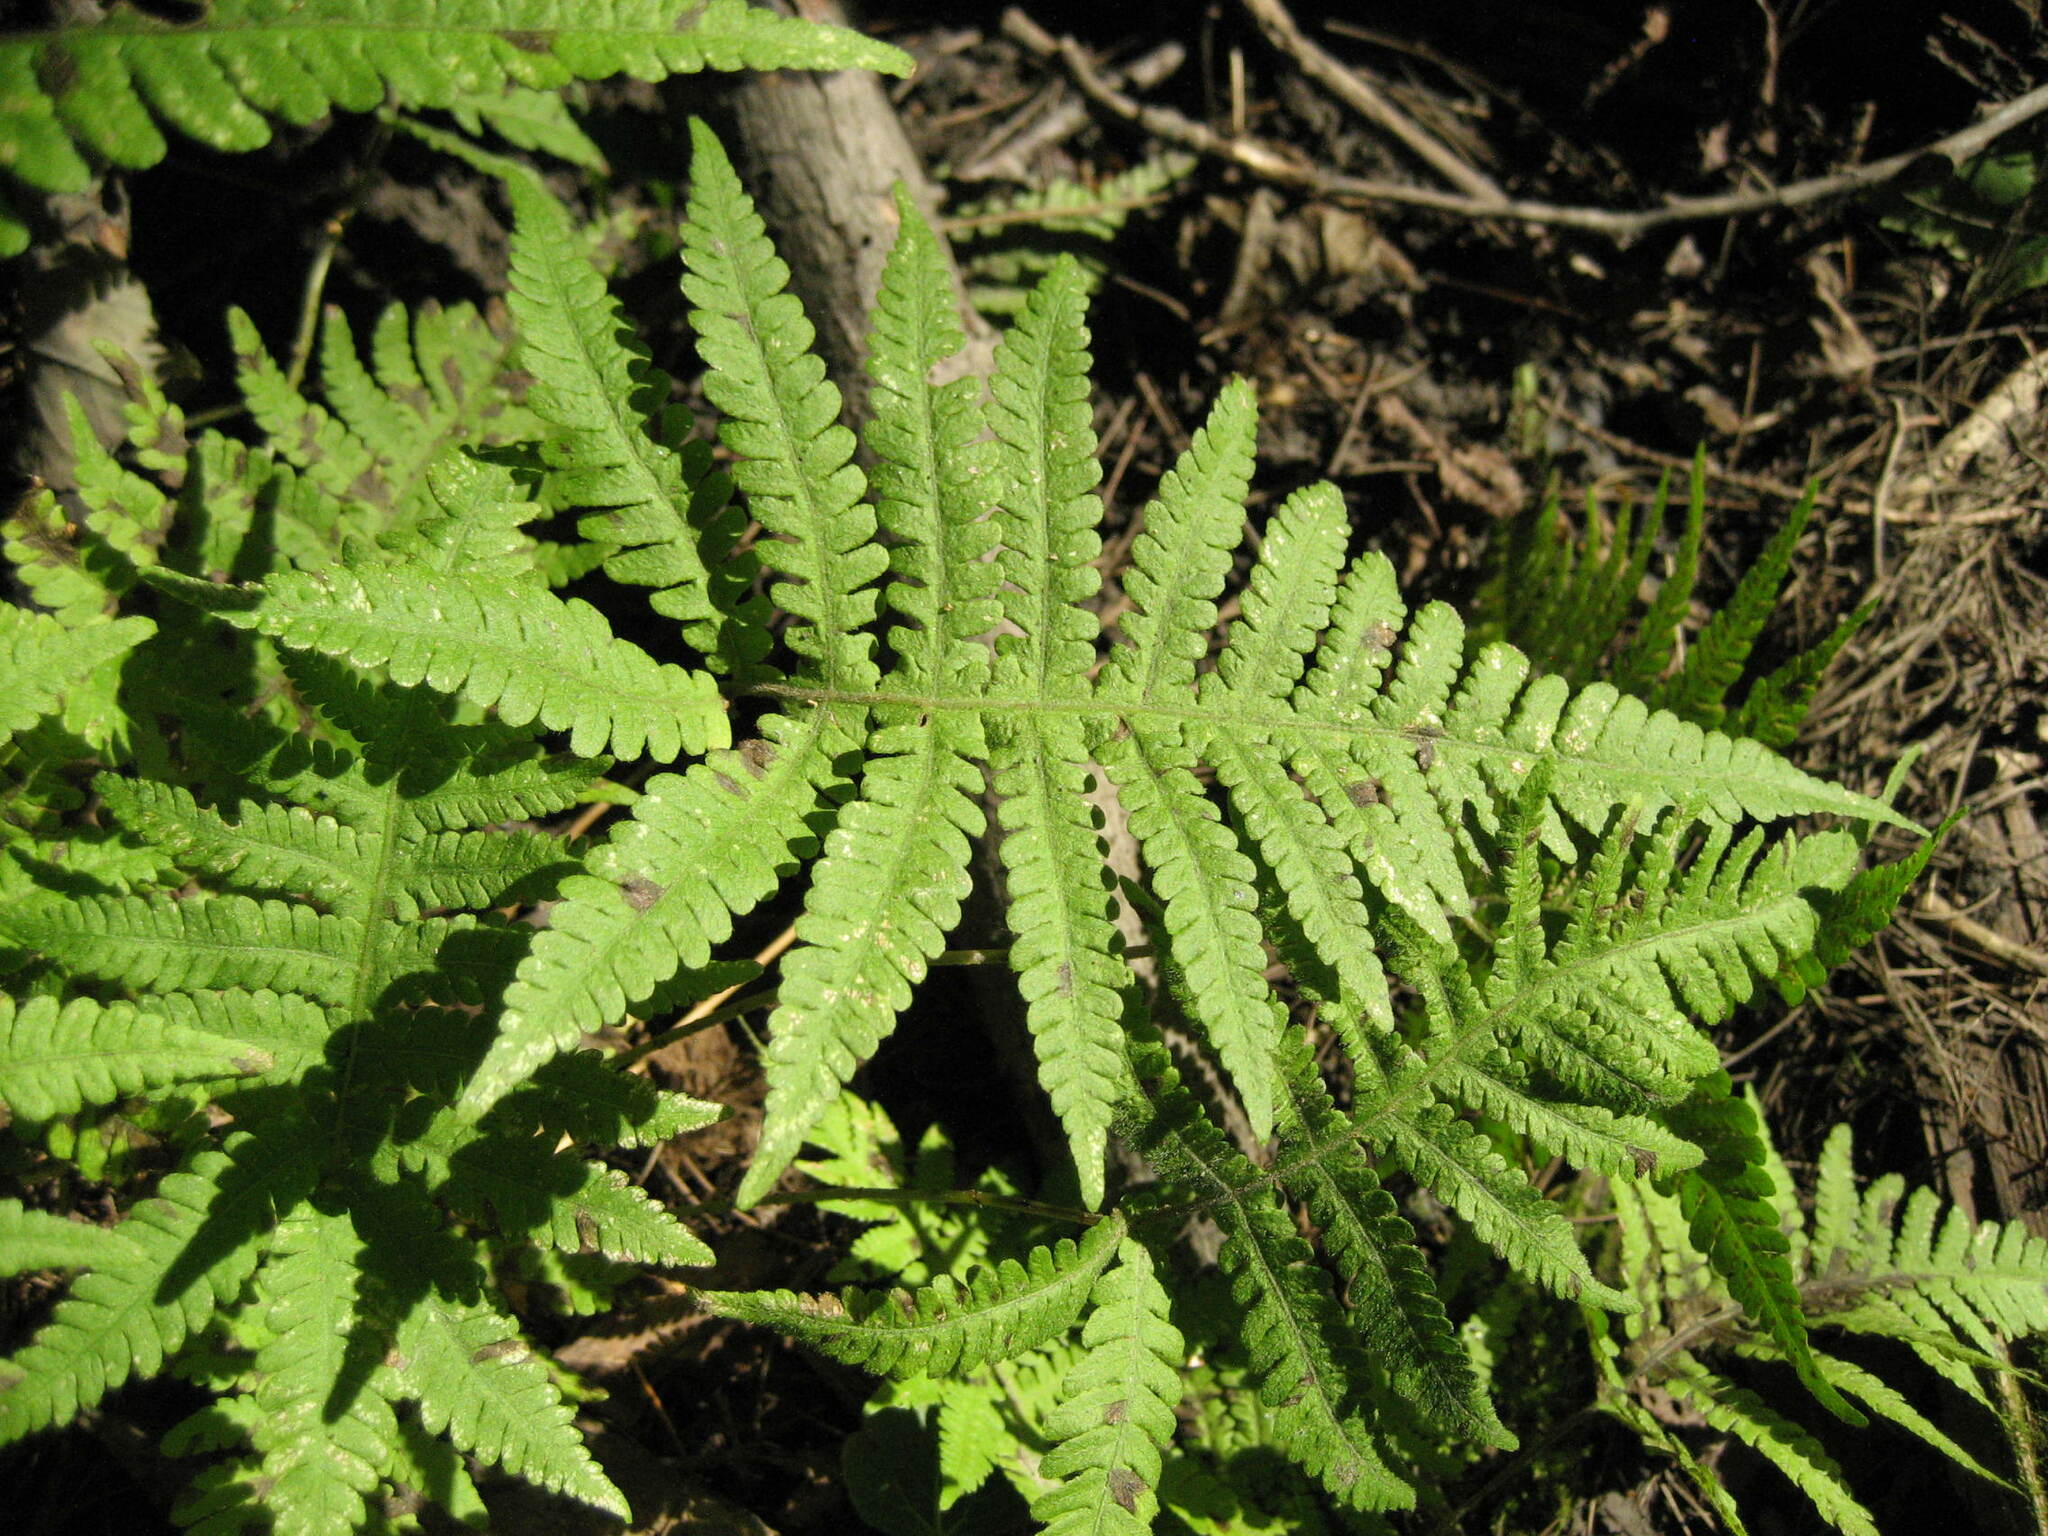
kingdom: Plantae
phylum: Tracheophyta
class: Polypodiopsida
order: Polypodiales
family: Thelypteridaceae
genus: Phegopteris
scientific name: Phegopteris connectilis
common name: Beech fern
